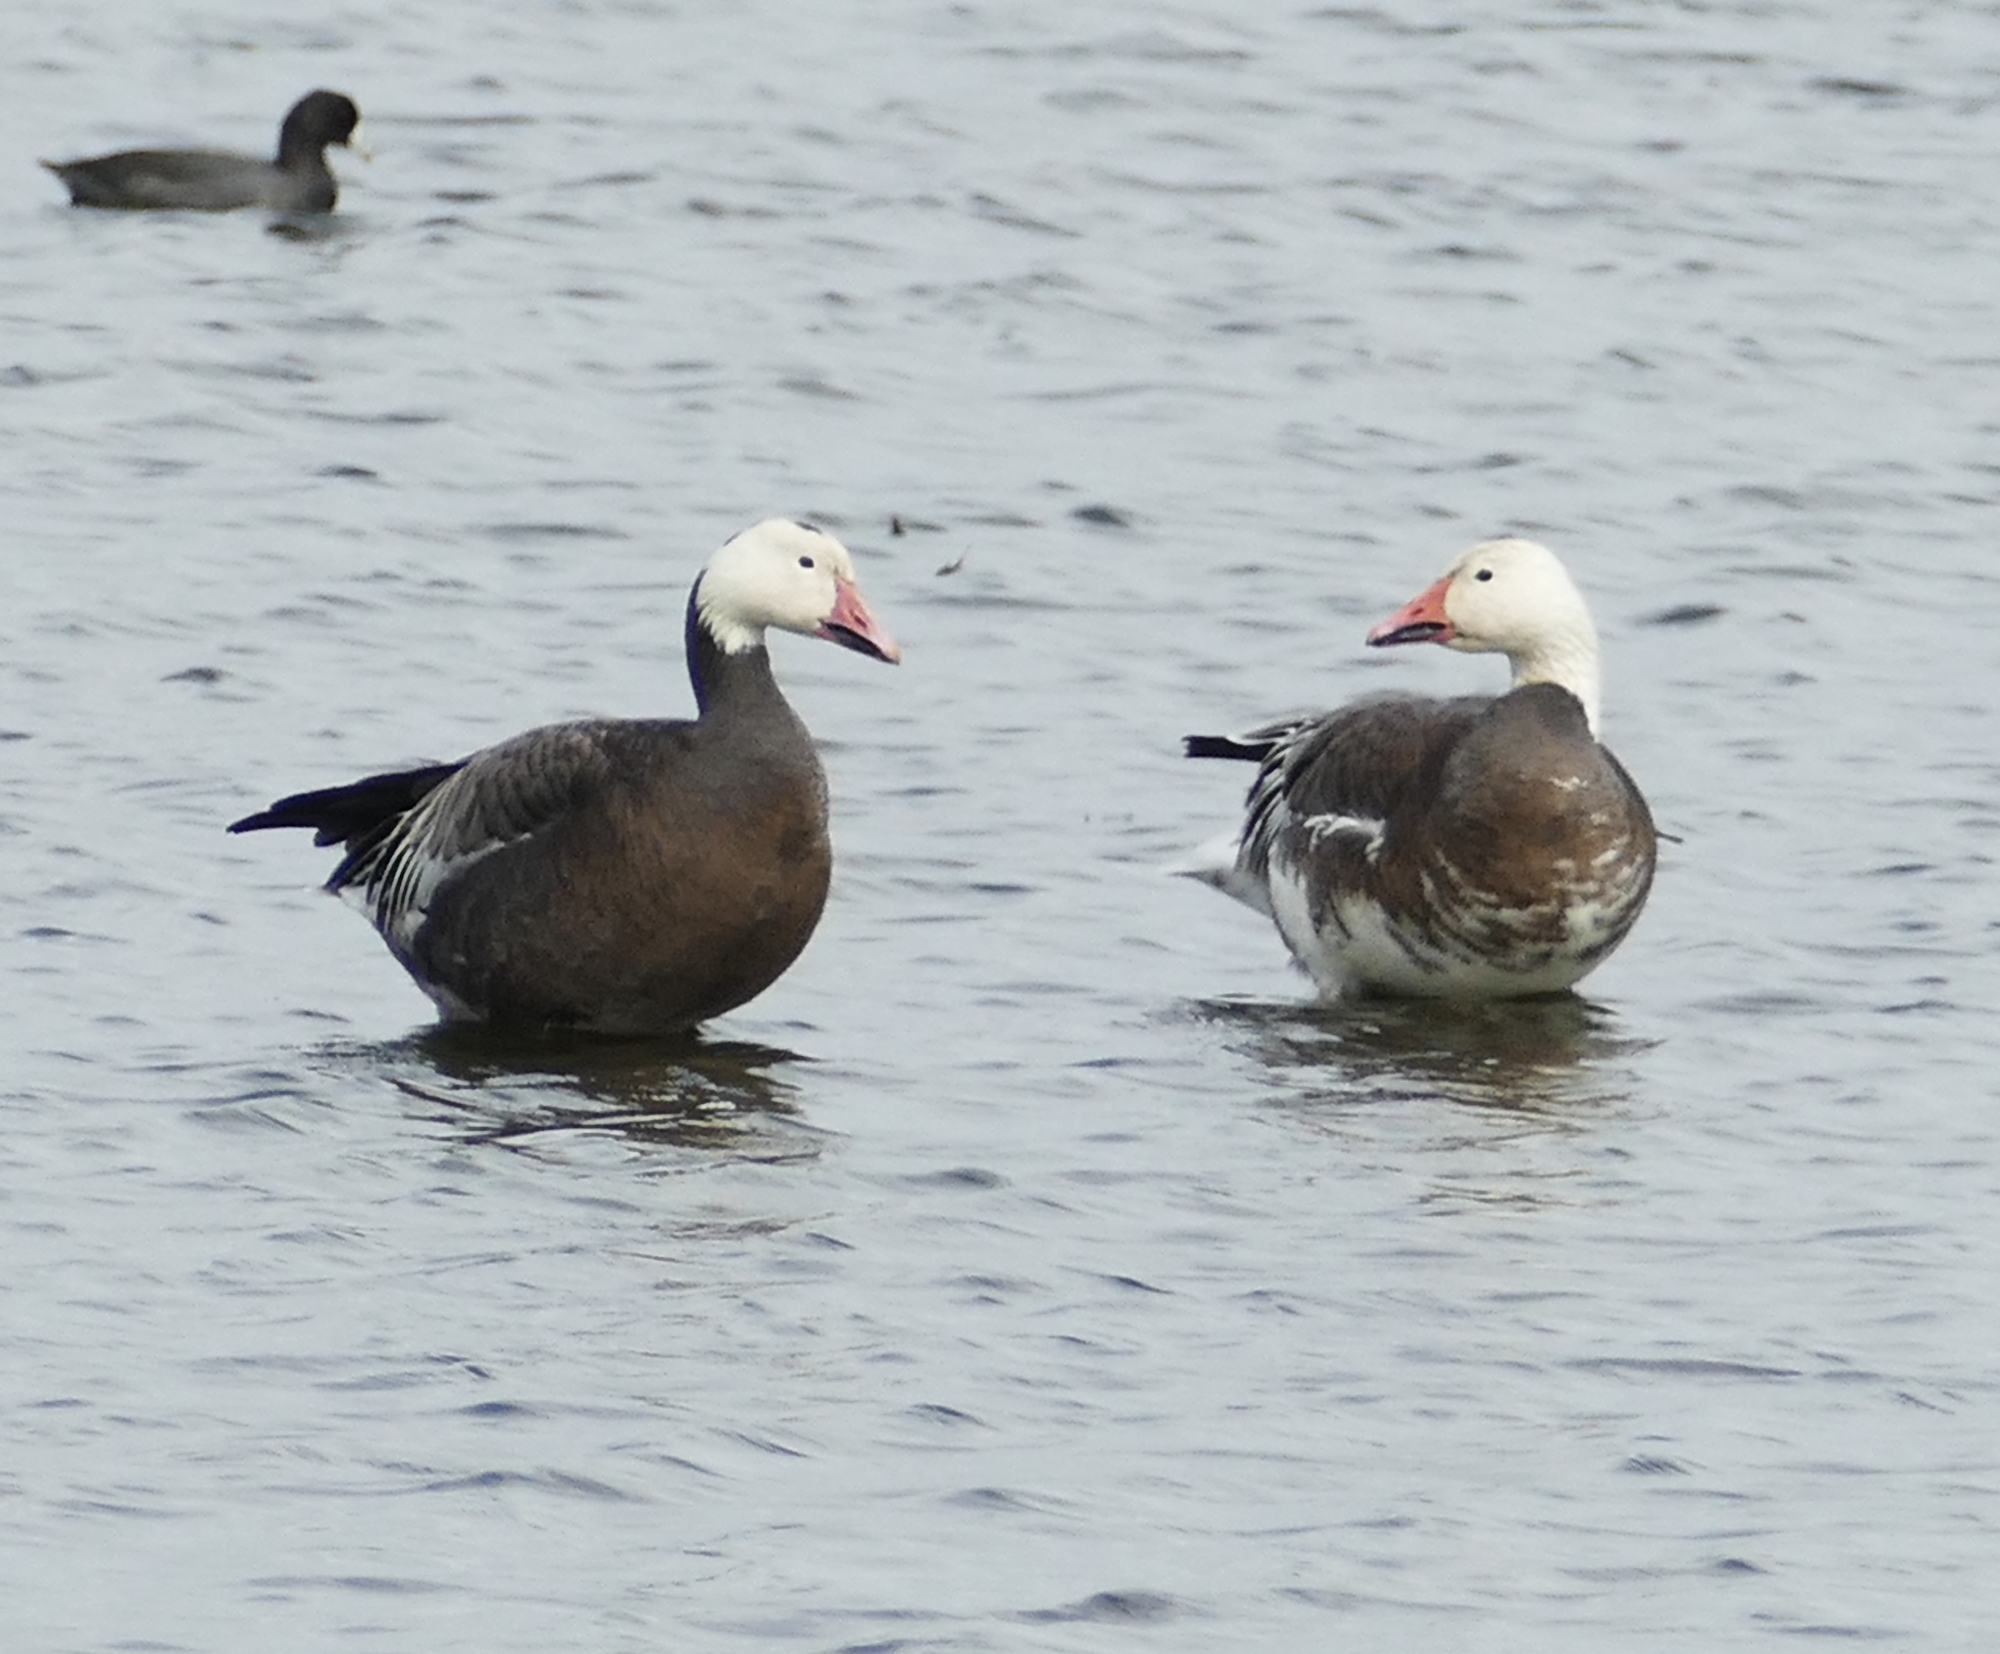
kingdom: Animalia
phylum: Chordata
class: Aves
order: Anseriformes
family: Anatidae
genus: Anser
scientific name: Anser caerulescens
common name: Snow goose
